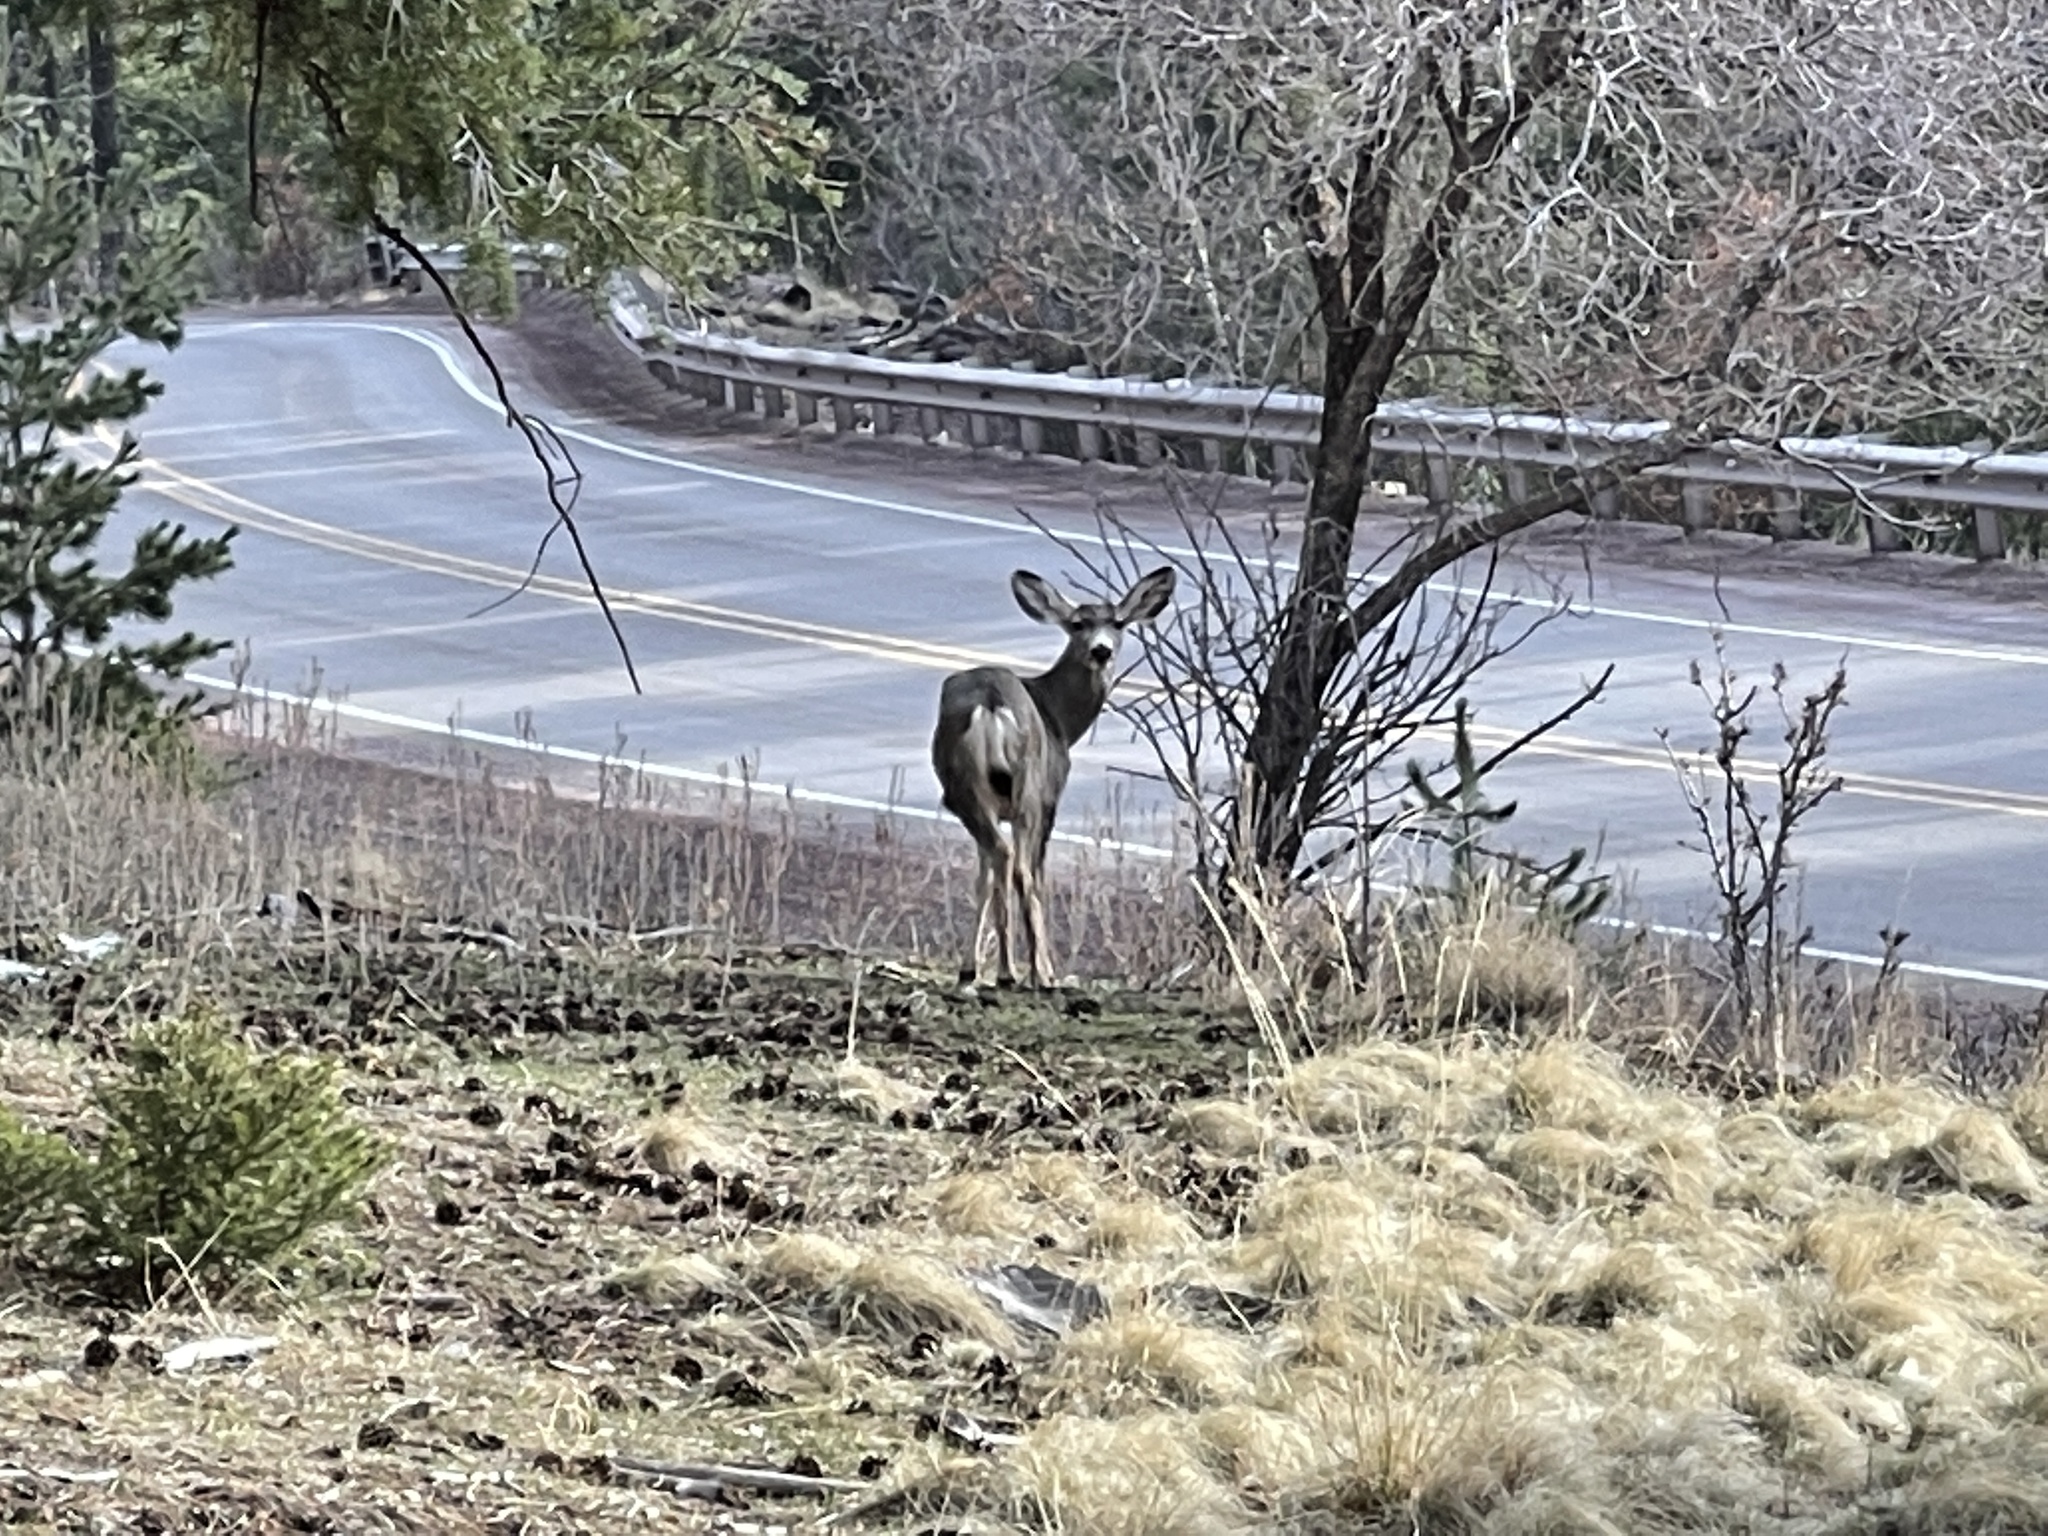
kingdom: Animalia
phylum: Chordata
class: Mammalia
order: Artiodactyla
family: Cervidae
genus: Odocoileus
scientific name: Odocoileus hemionus
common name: Mule deer
